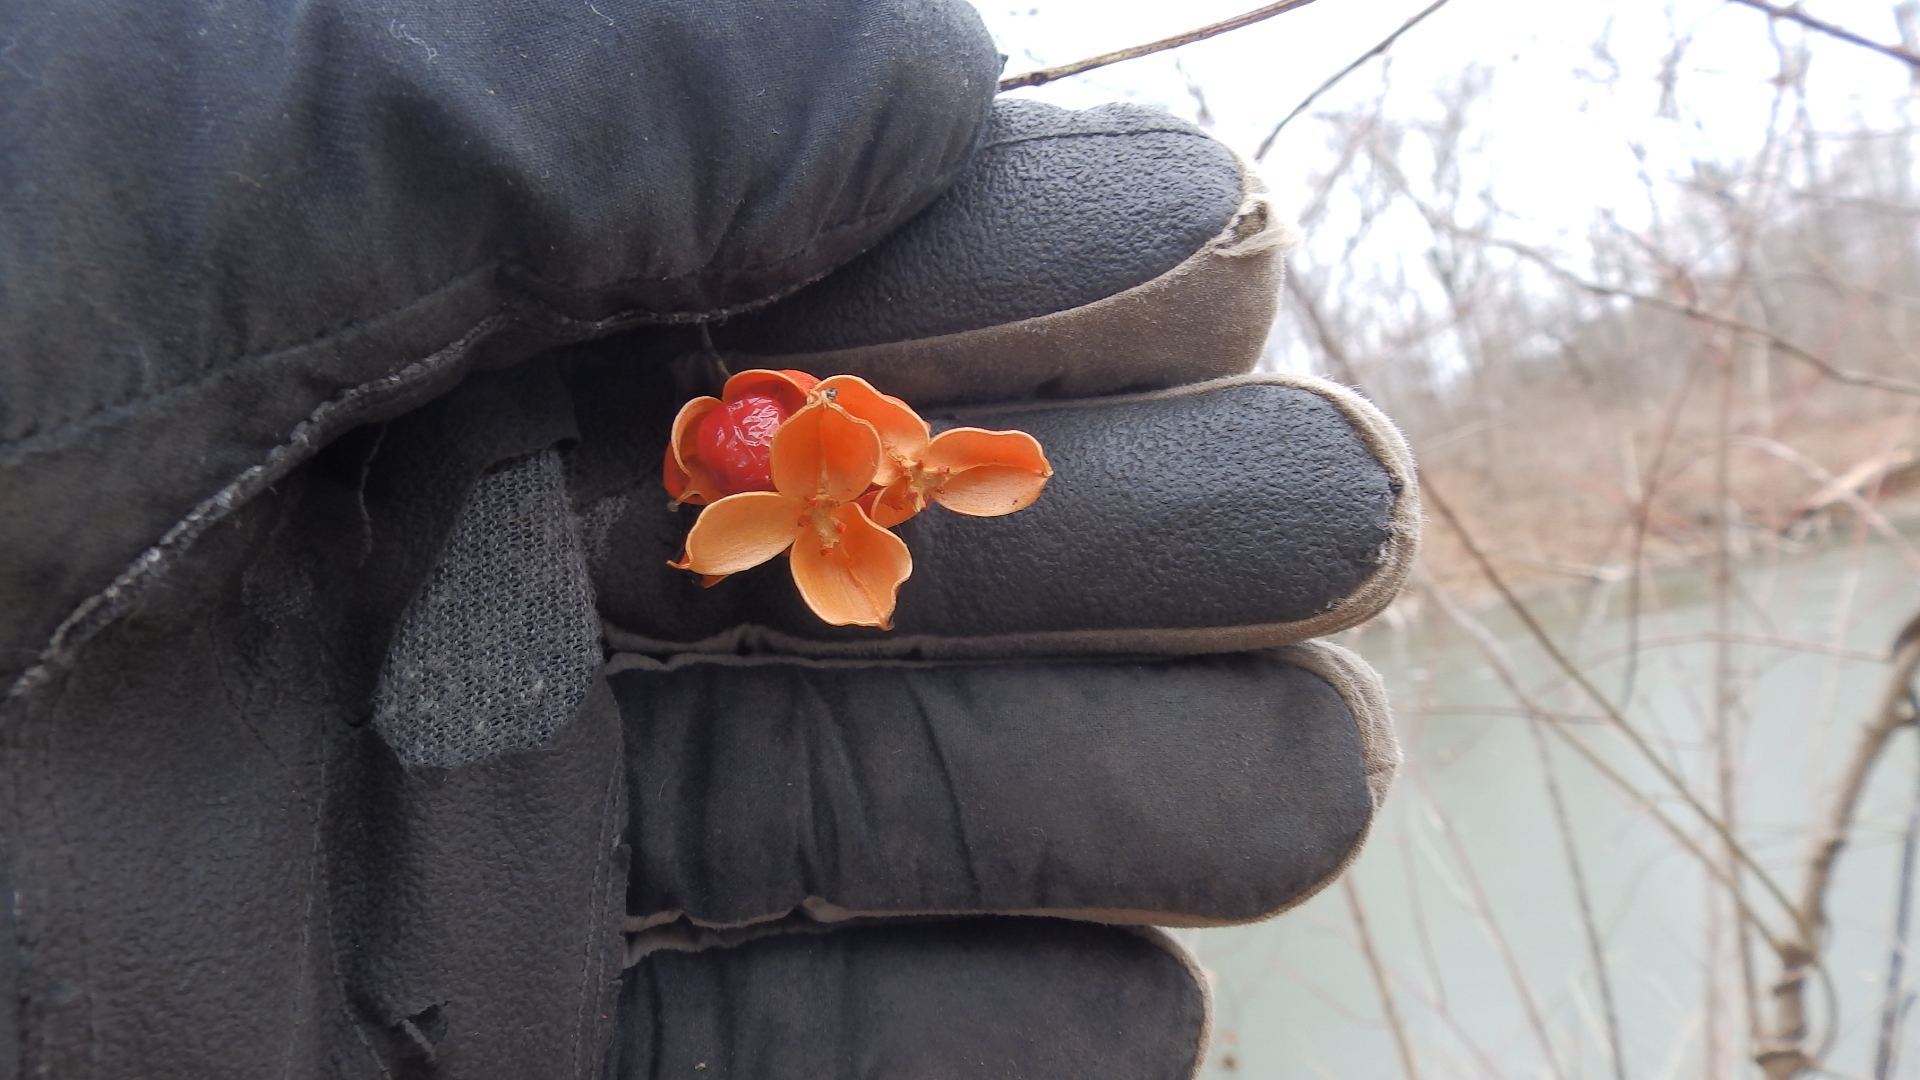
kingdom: Plantae
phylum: Tracheophyta
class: Magnoliopsida
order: Celastrales
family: Celastraceae
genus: Celastrus
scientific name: Celastrus scandens
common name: American bittersweet
